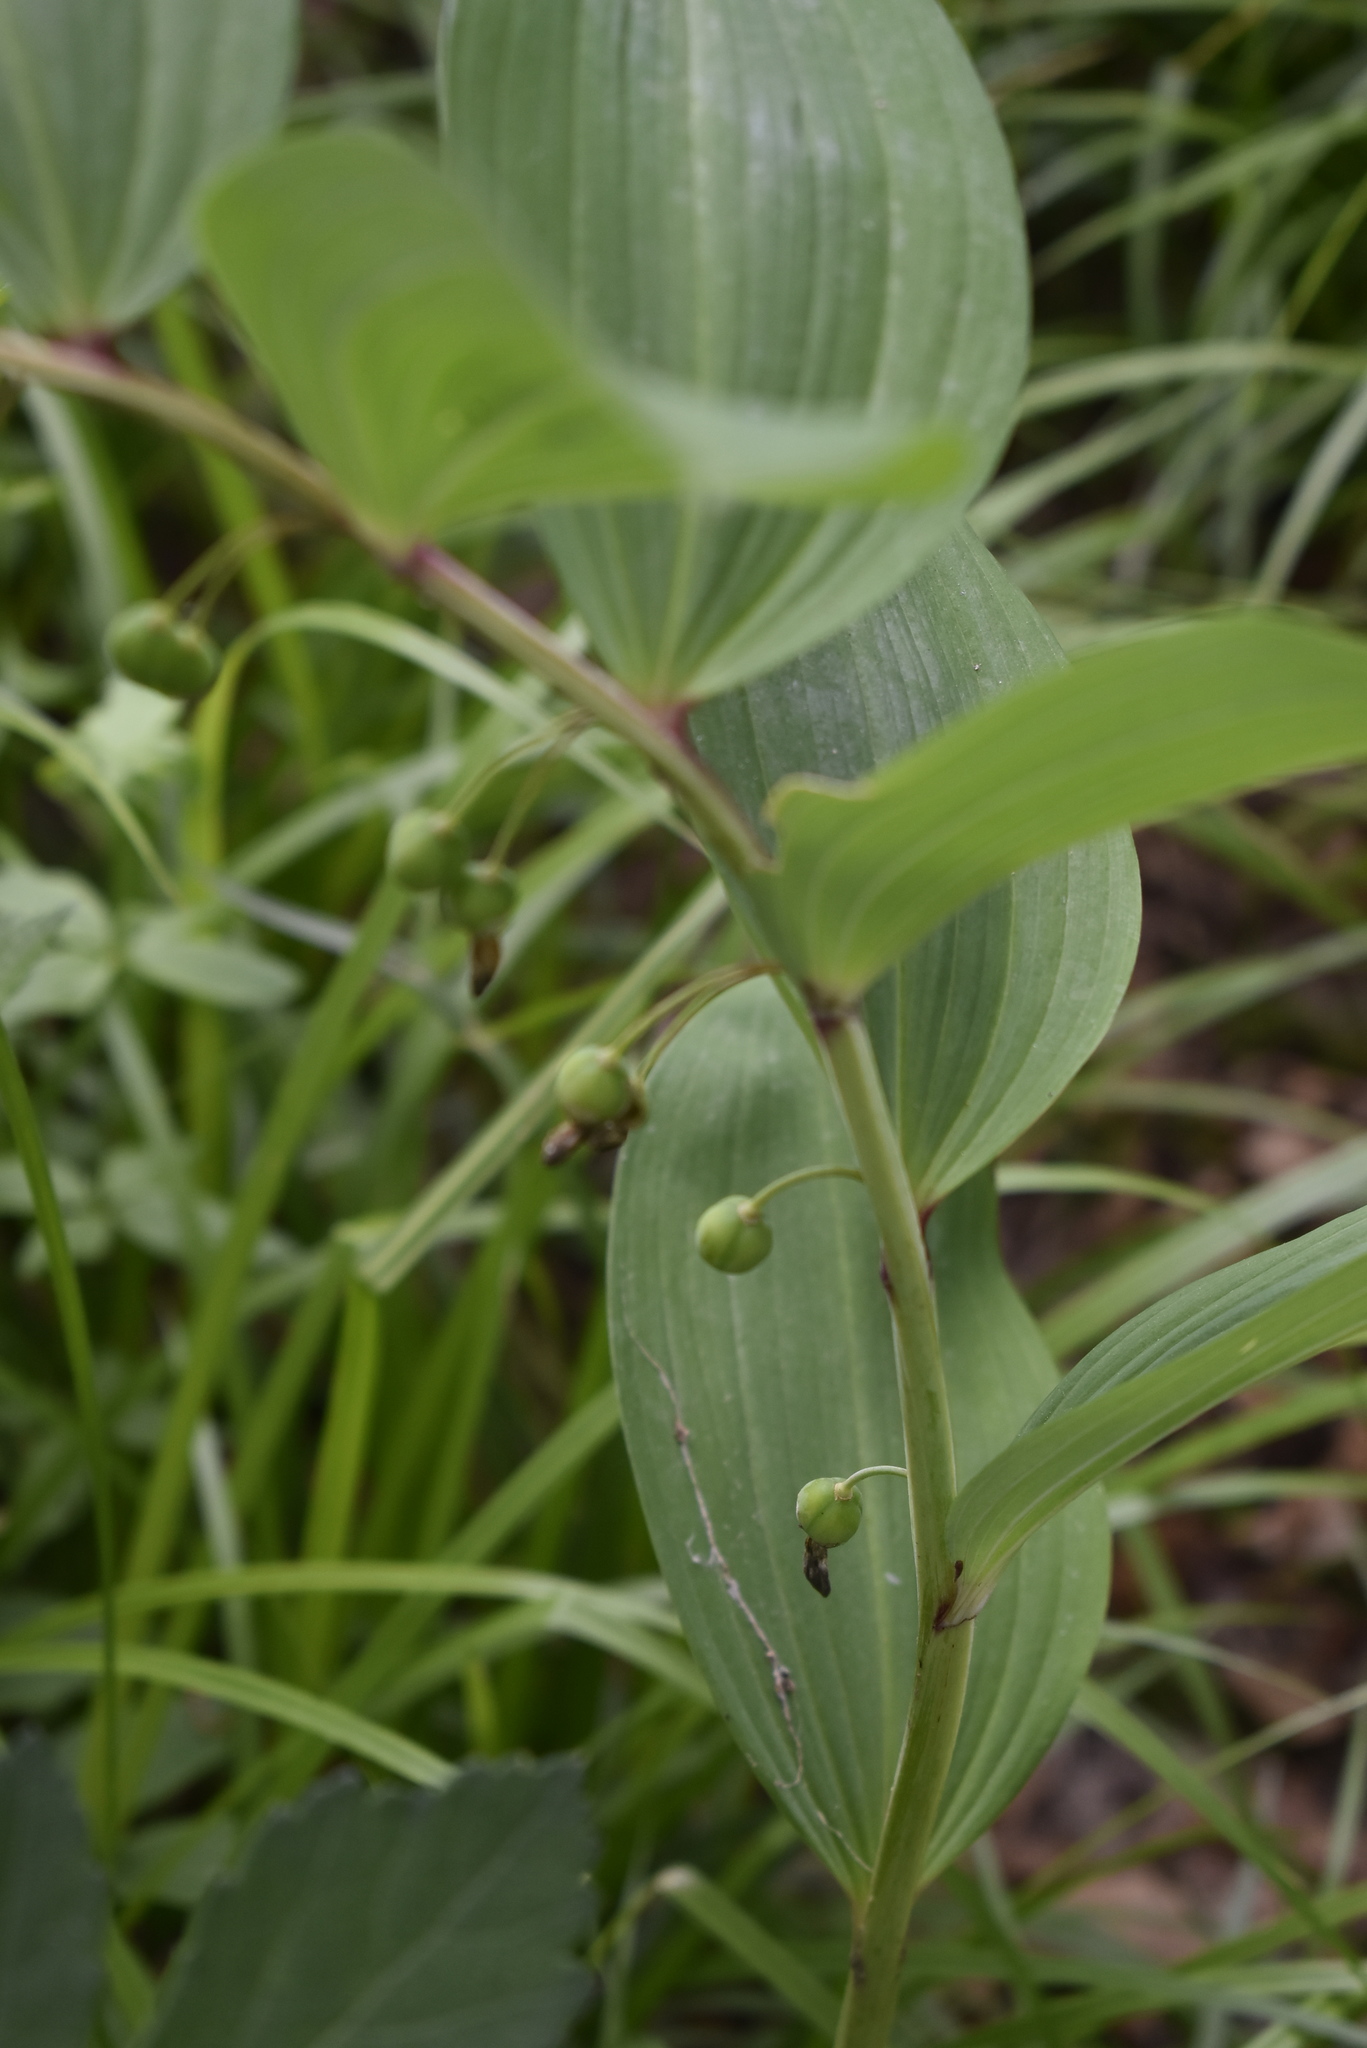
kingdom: Plantae
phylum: Tracheophyta
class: Liliopsida
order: Asparagales
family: Asparagaceae
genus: Polygonatum
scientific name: Polygonatum odoratum
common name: Angular solomon's-seal
